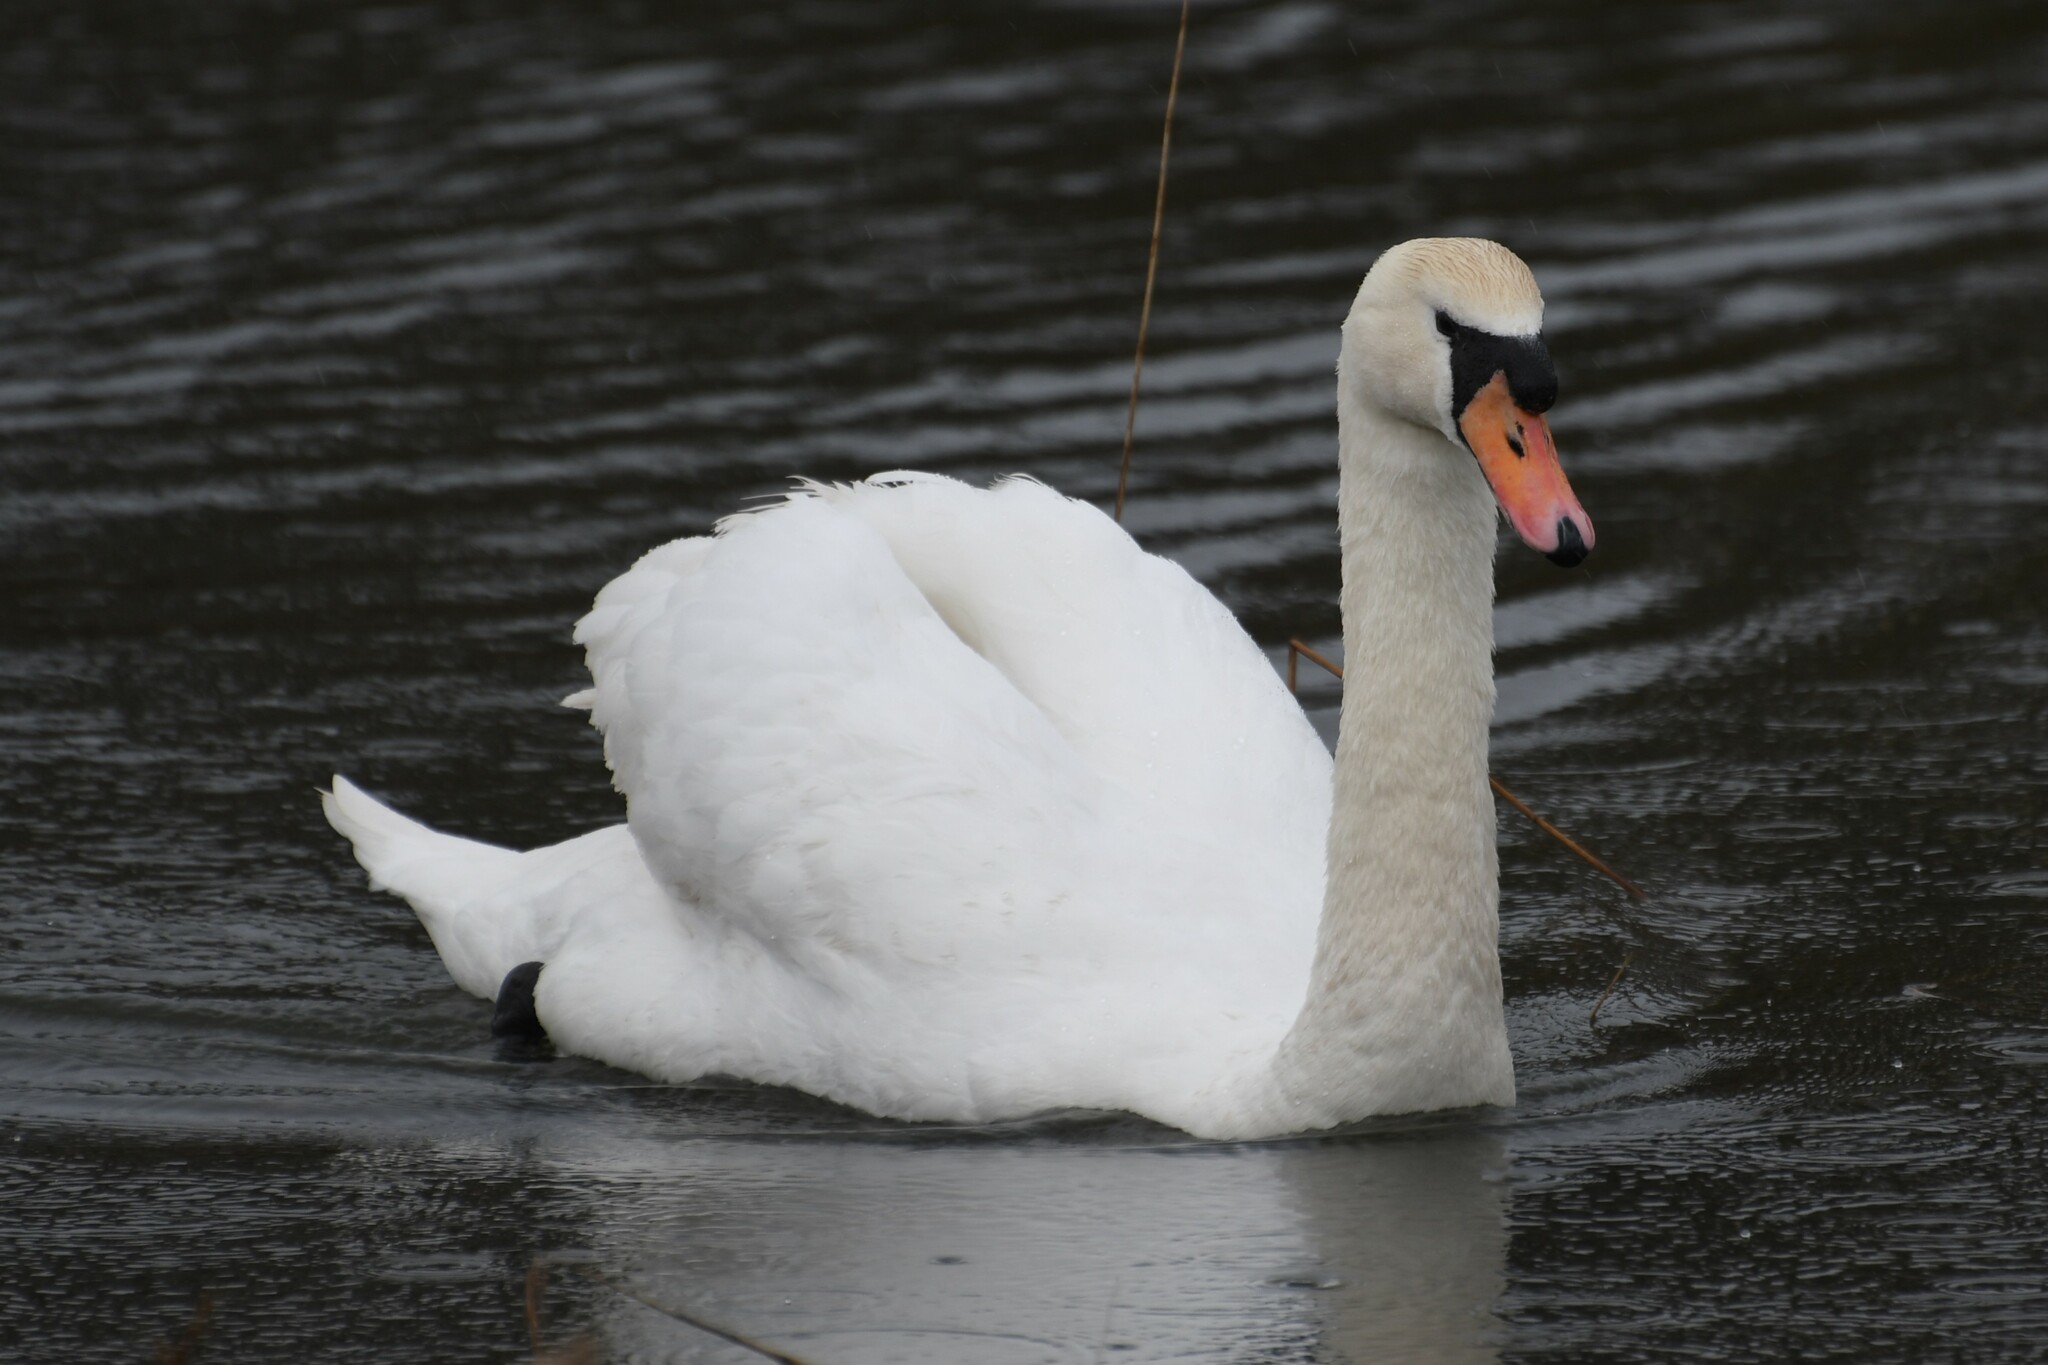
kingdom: Animalia
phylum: Chordata
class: Aves
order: Anseriformes
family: Anatidae
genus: Cygnus
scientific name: Cygnus olor
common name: Mute swan
